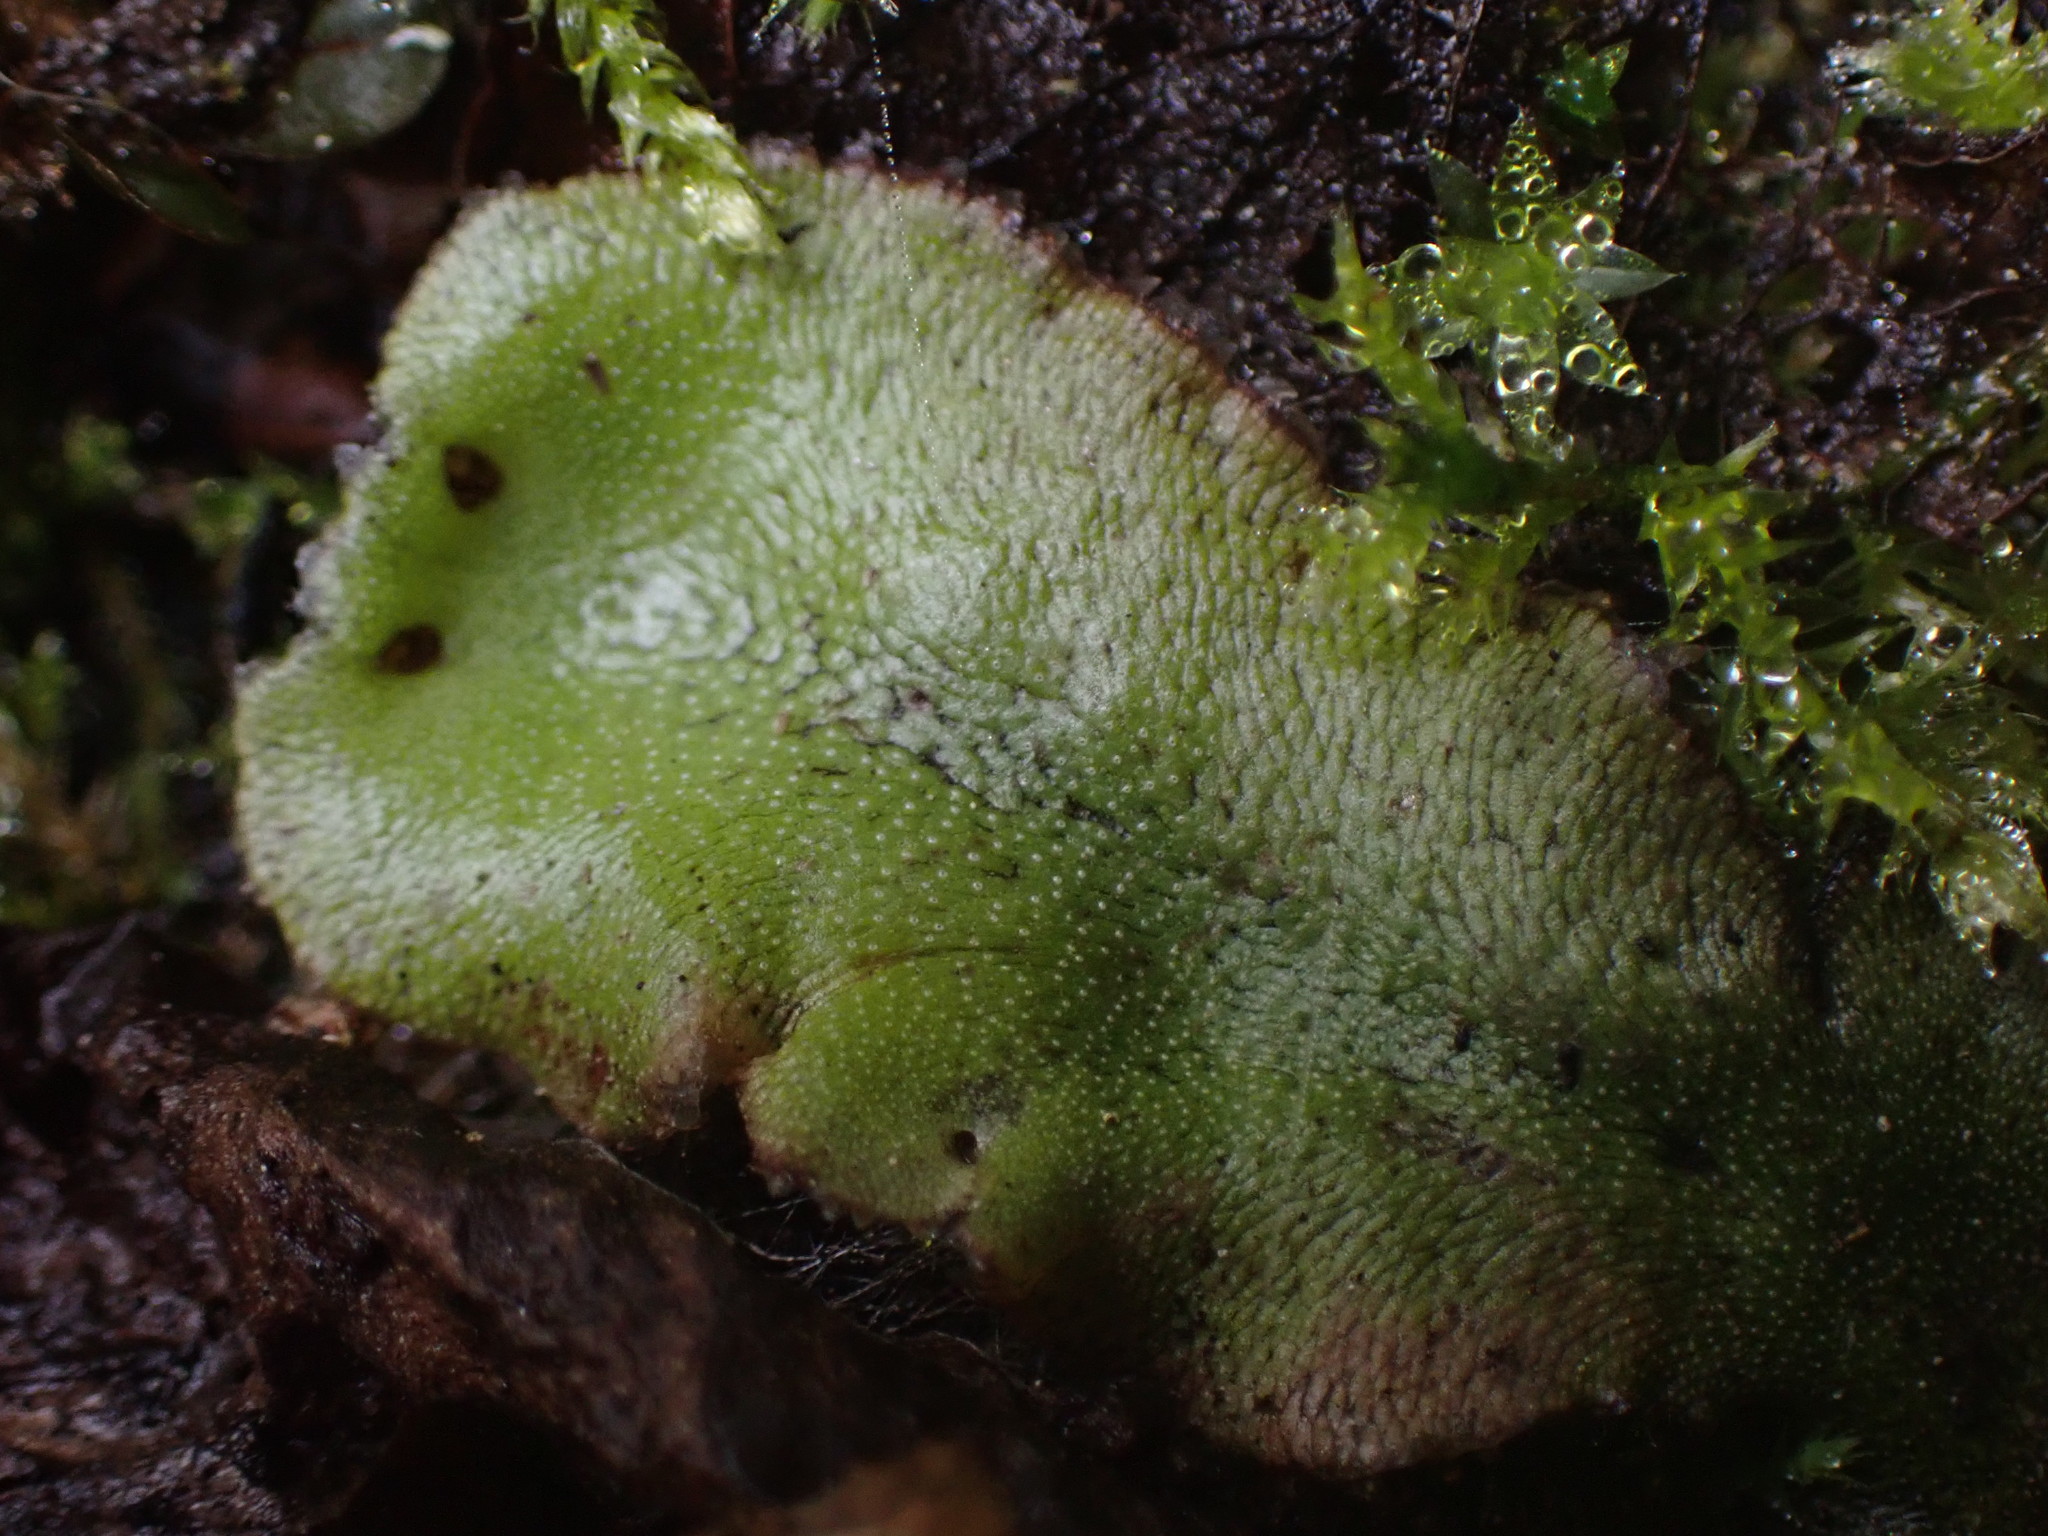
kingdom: Plantae
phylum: Marchantiophyta
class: Marchantiopsida
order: Marchantiales
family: Marchantiaceae
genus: Marchantia
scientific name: Marchantia polymorpha
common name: Common liverwort
